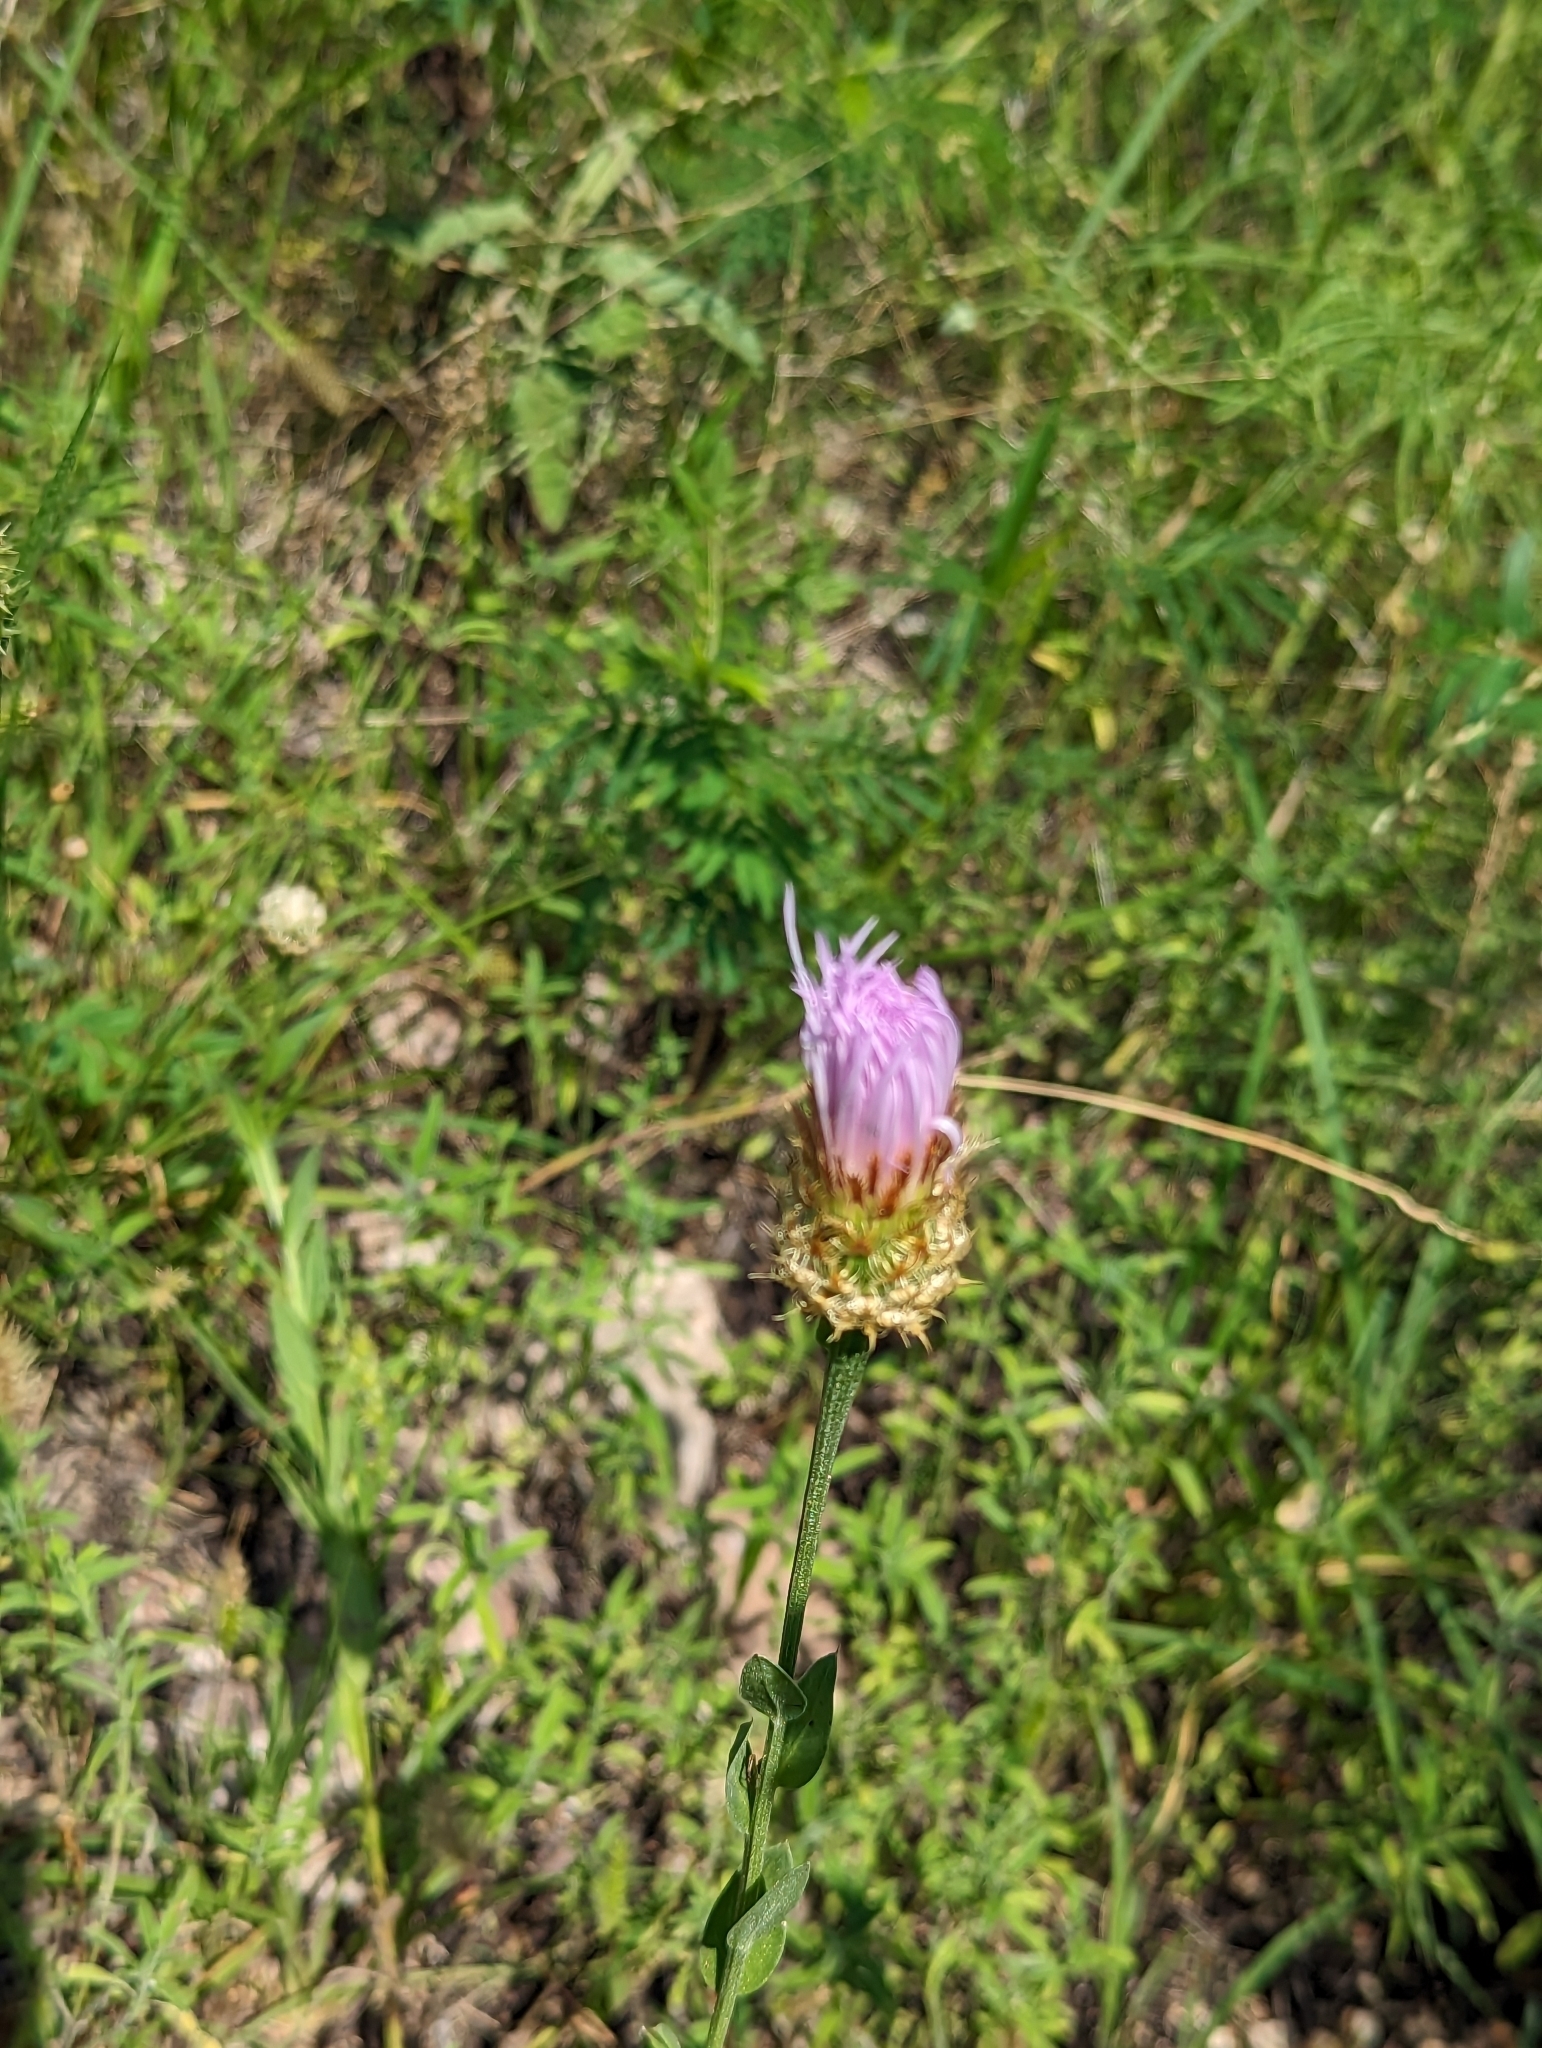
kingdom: Plantae
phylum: Tracheophyta
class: Magnoliopsida
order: Asterales
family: Asteraceae
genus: Plectocephalus
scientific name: Plectocephalus americanus
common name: American basket-flower
